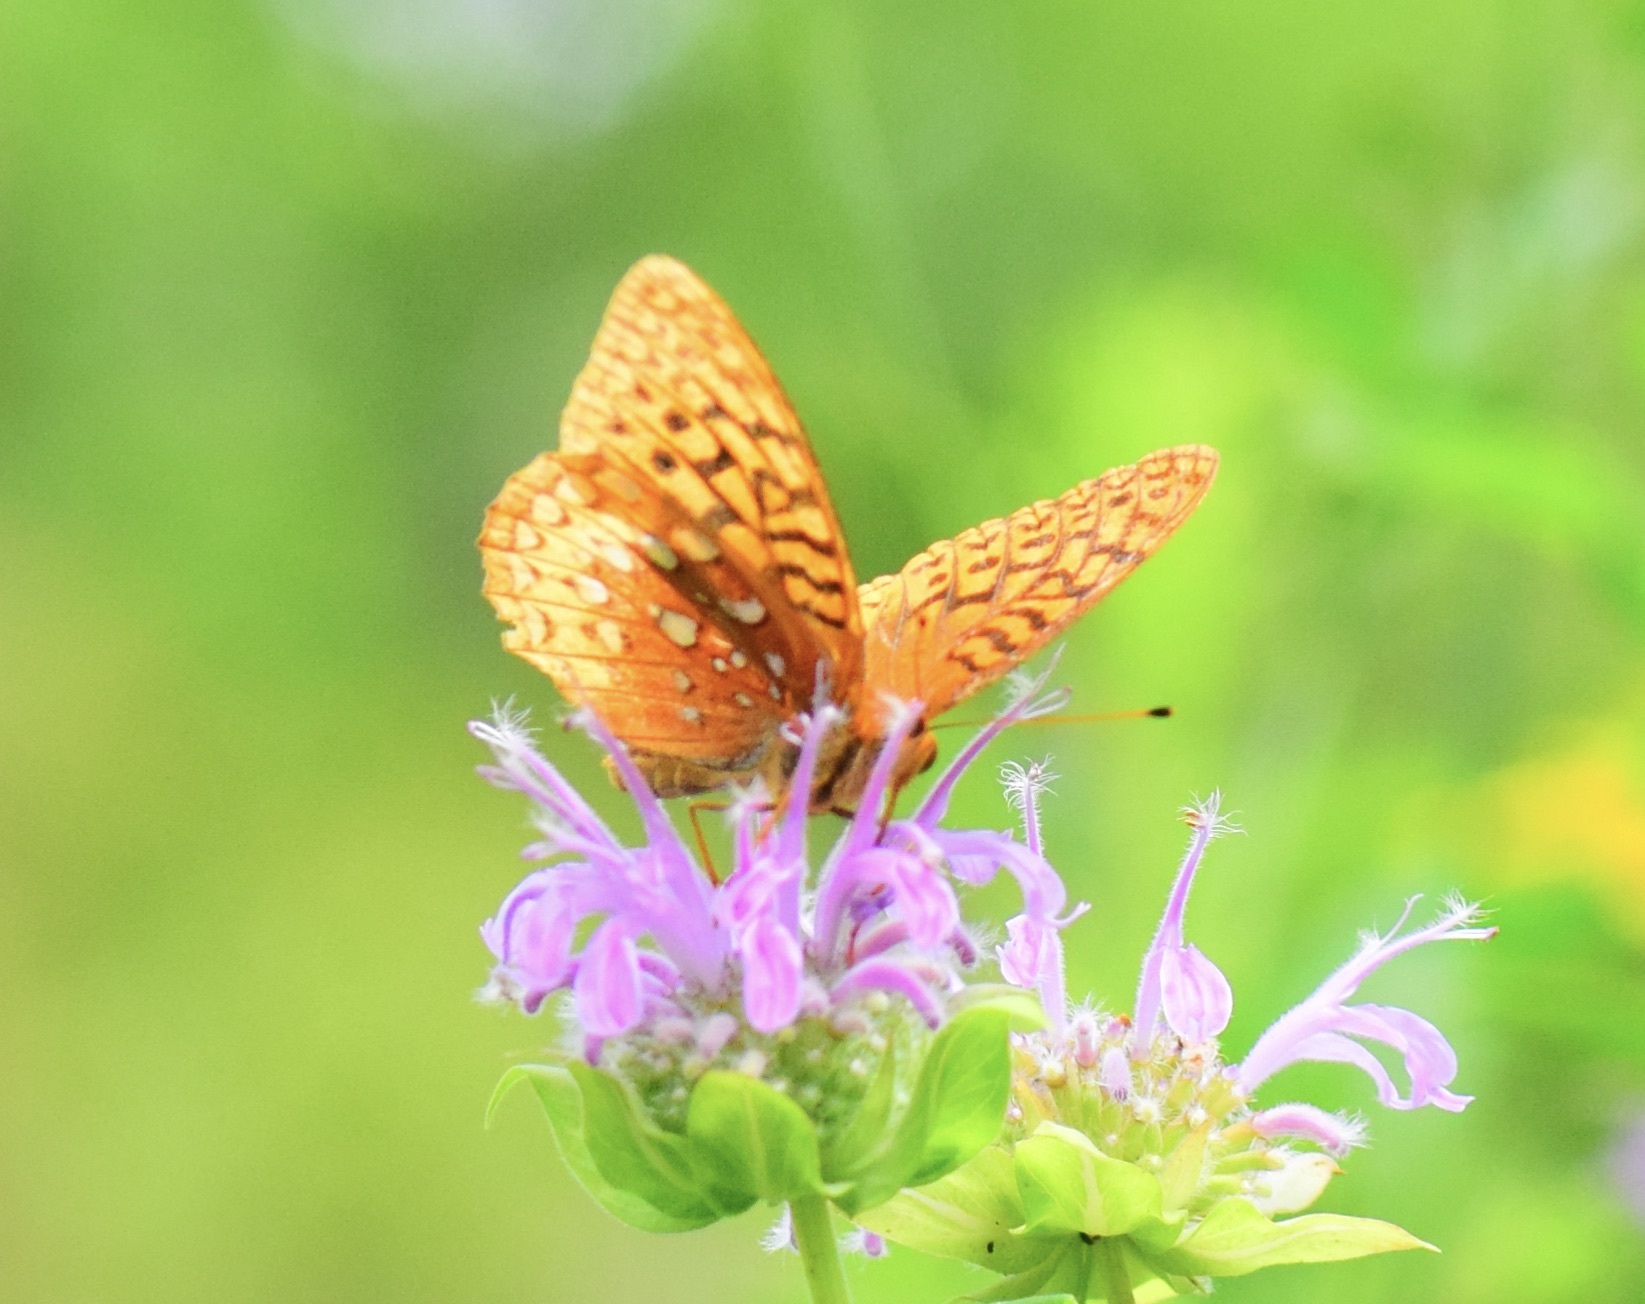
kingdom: Animalia
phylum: Arthropoda
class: Insecta
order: Lepidoptera
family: Nymphalidae
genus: Speyeria
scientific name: Speyeria cybele
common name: Great spangled fritillary
